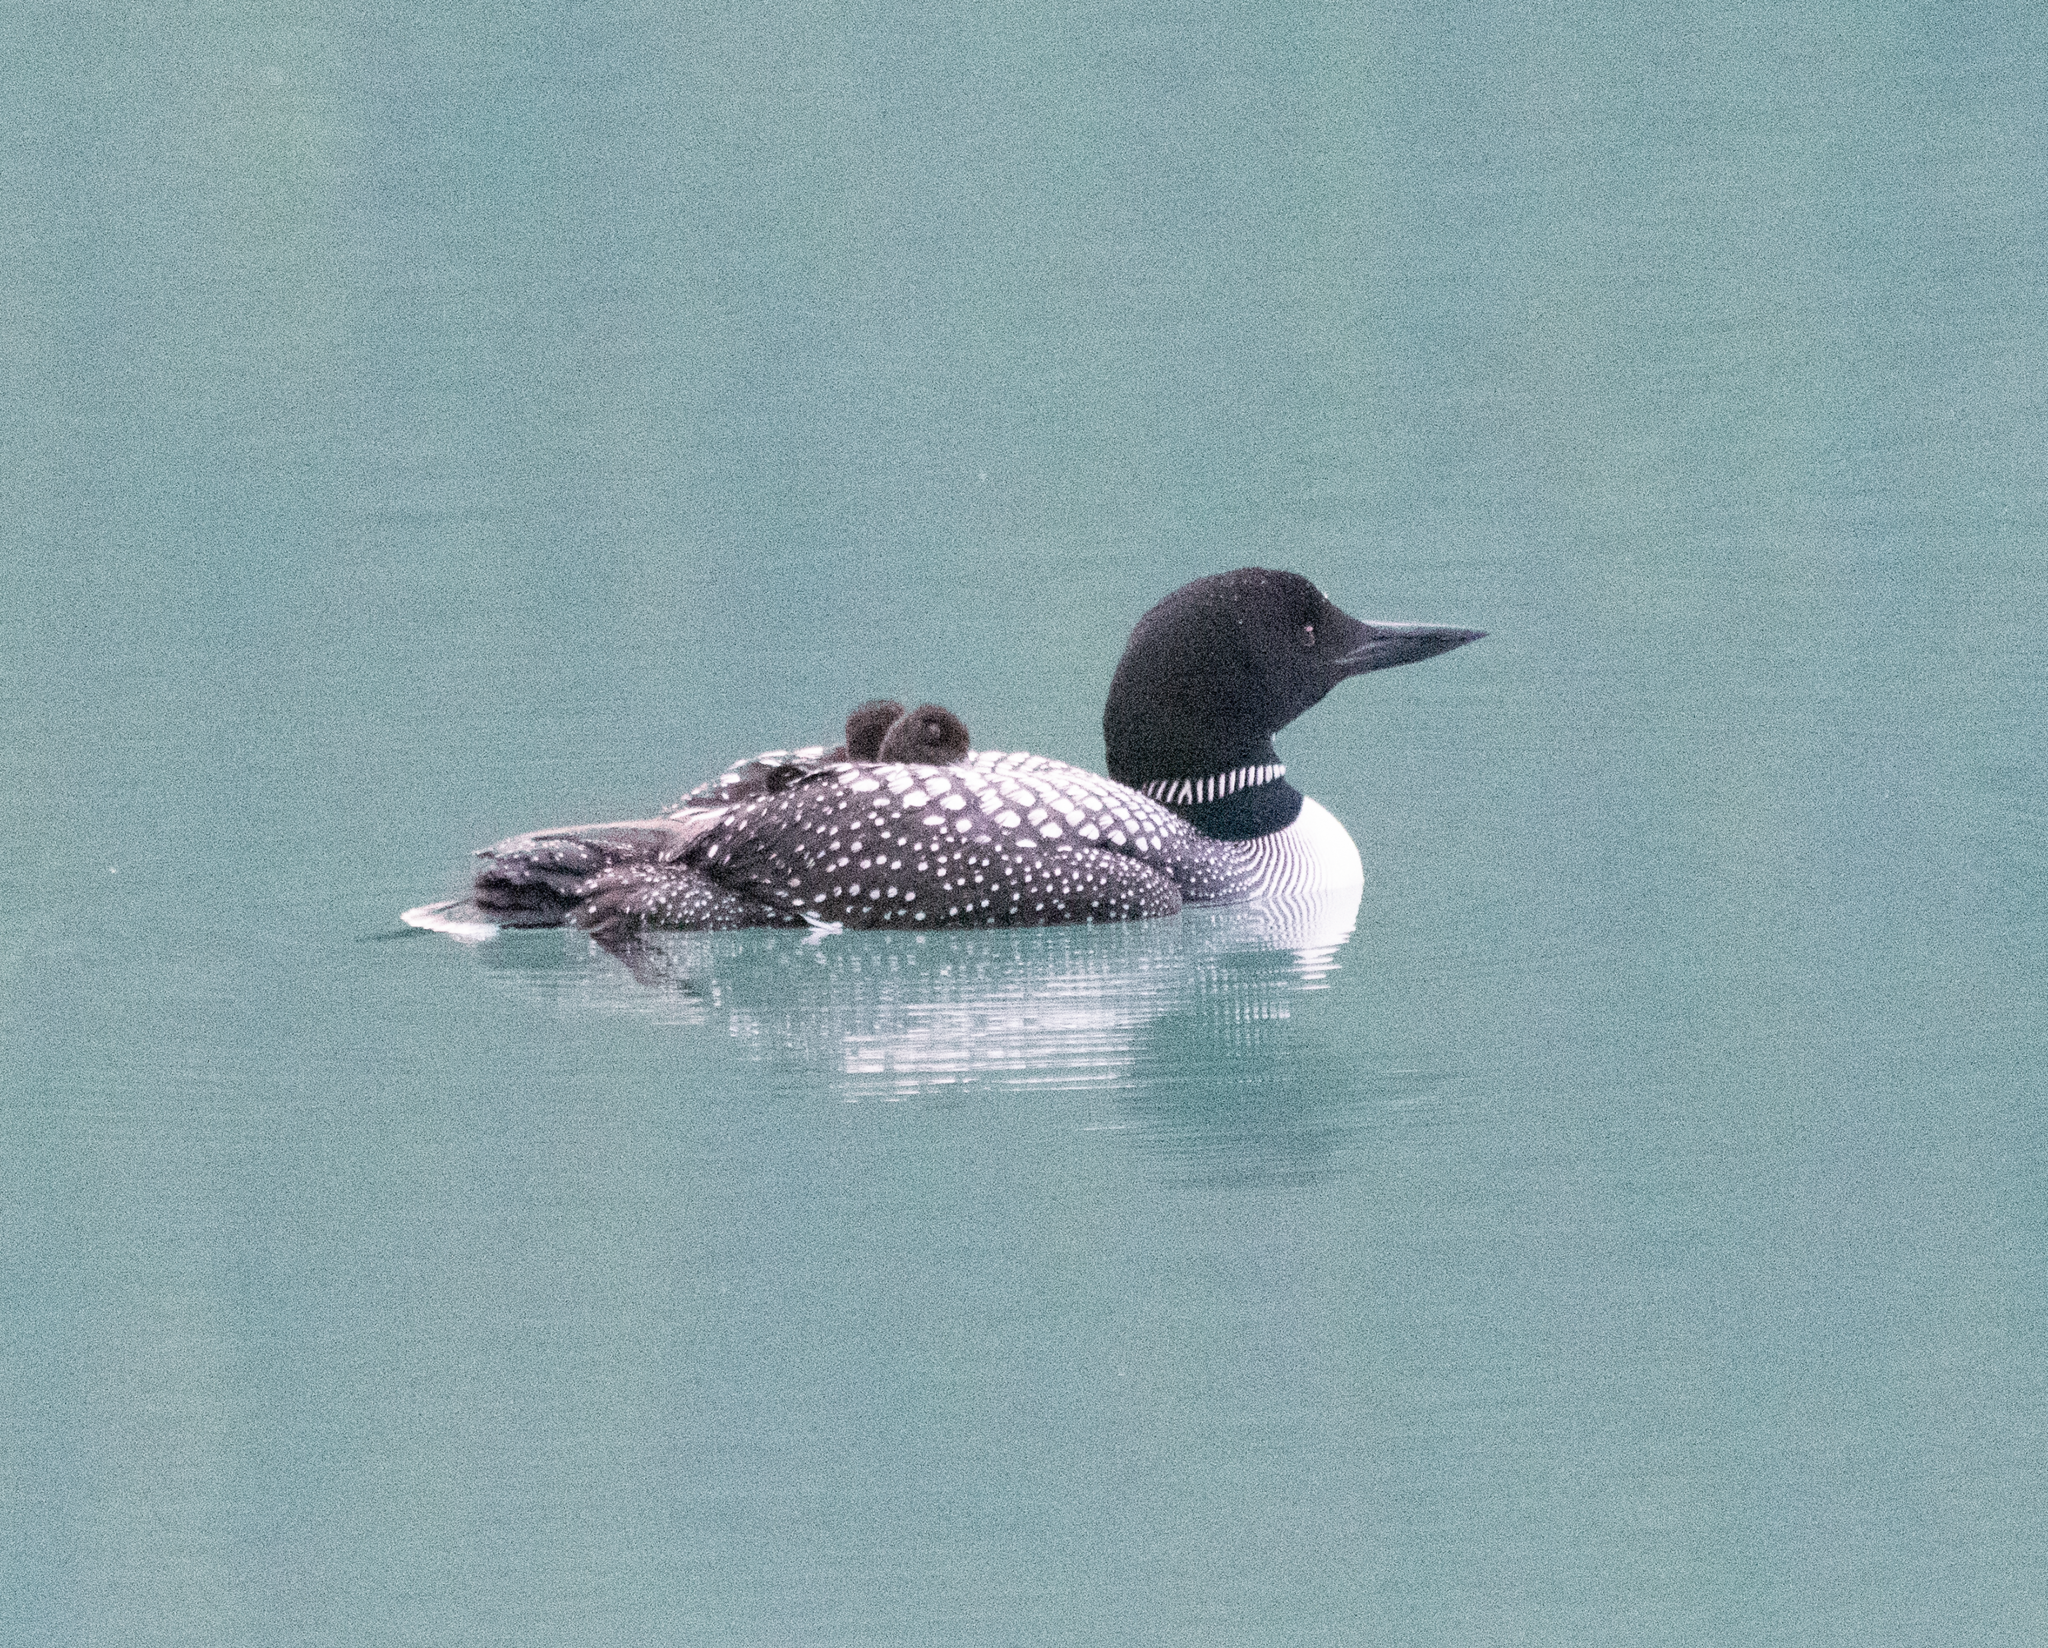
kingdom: Animalia
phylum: Chordata
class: Aves
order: Gaviiformes
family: Gaviidae
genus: Gavia
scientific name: Gavia immer
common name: Common loon
